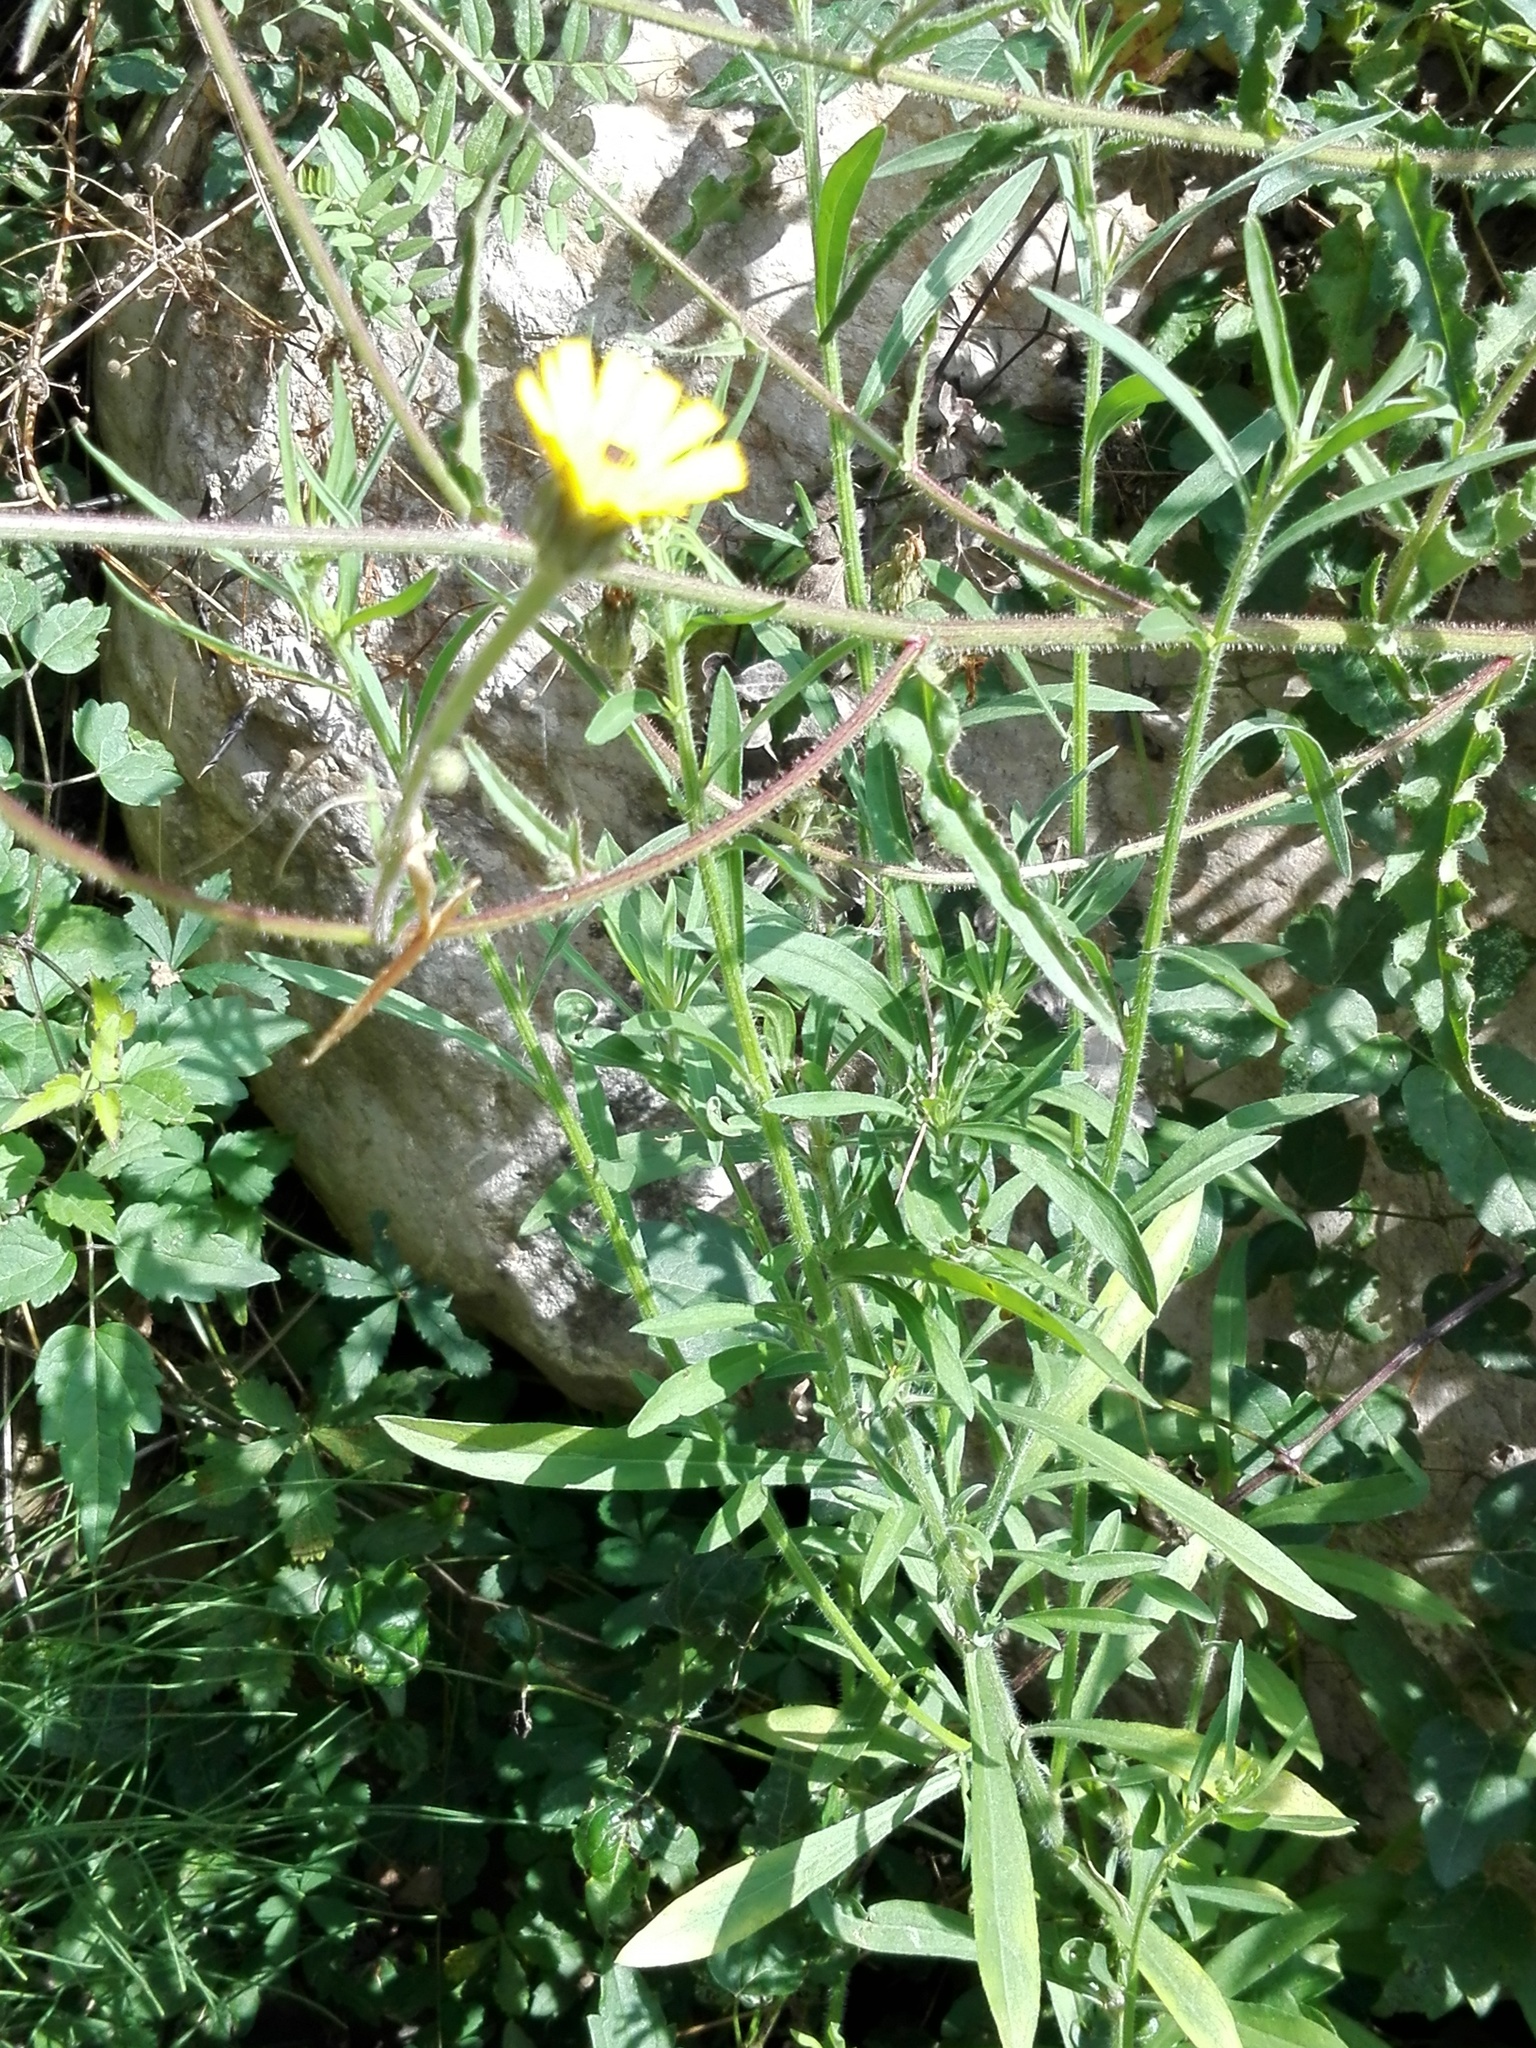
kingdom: Plantae
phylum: Tracheophyta
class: Magnoliopsida
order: Asterales
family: Asteraceae
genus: Picris
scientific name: Picris hieracioides
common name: Hawkweed oxtongue
